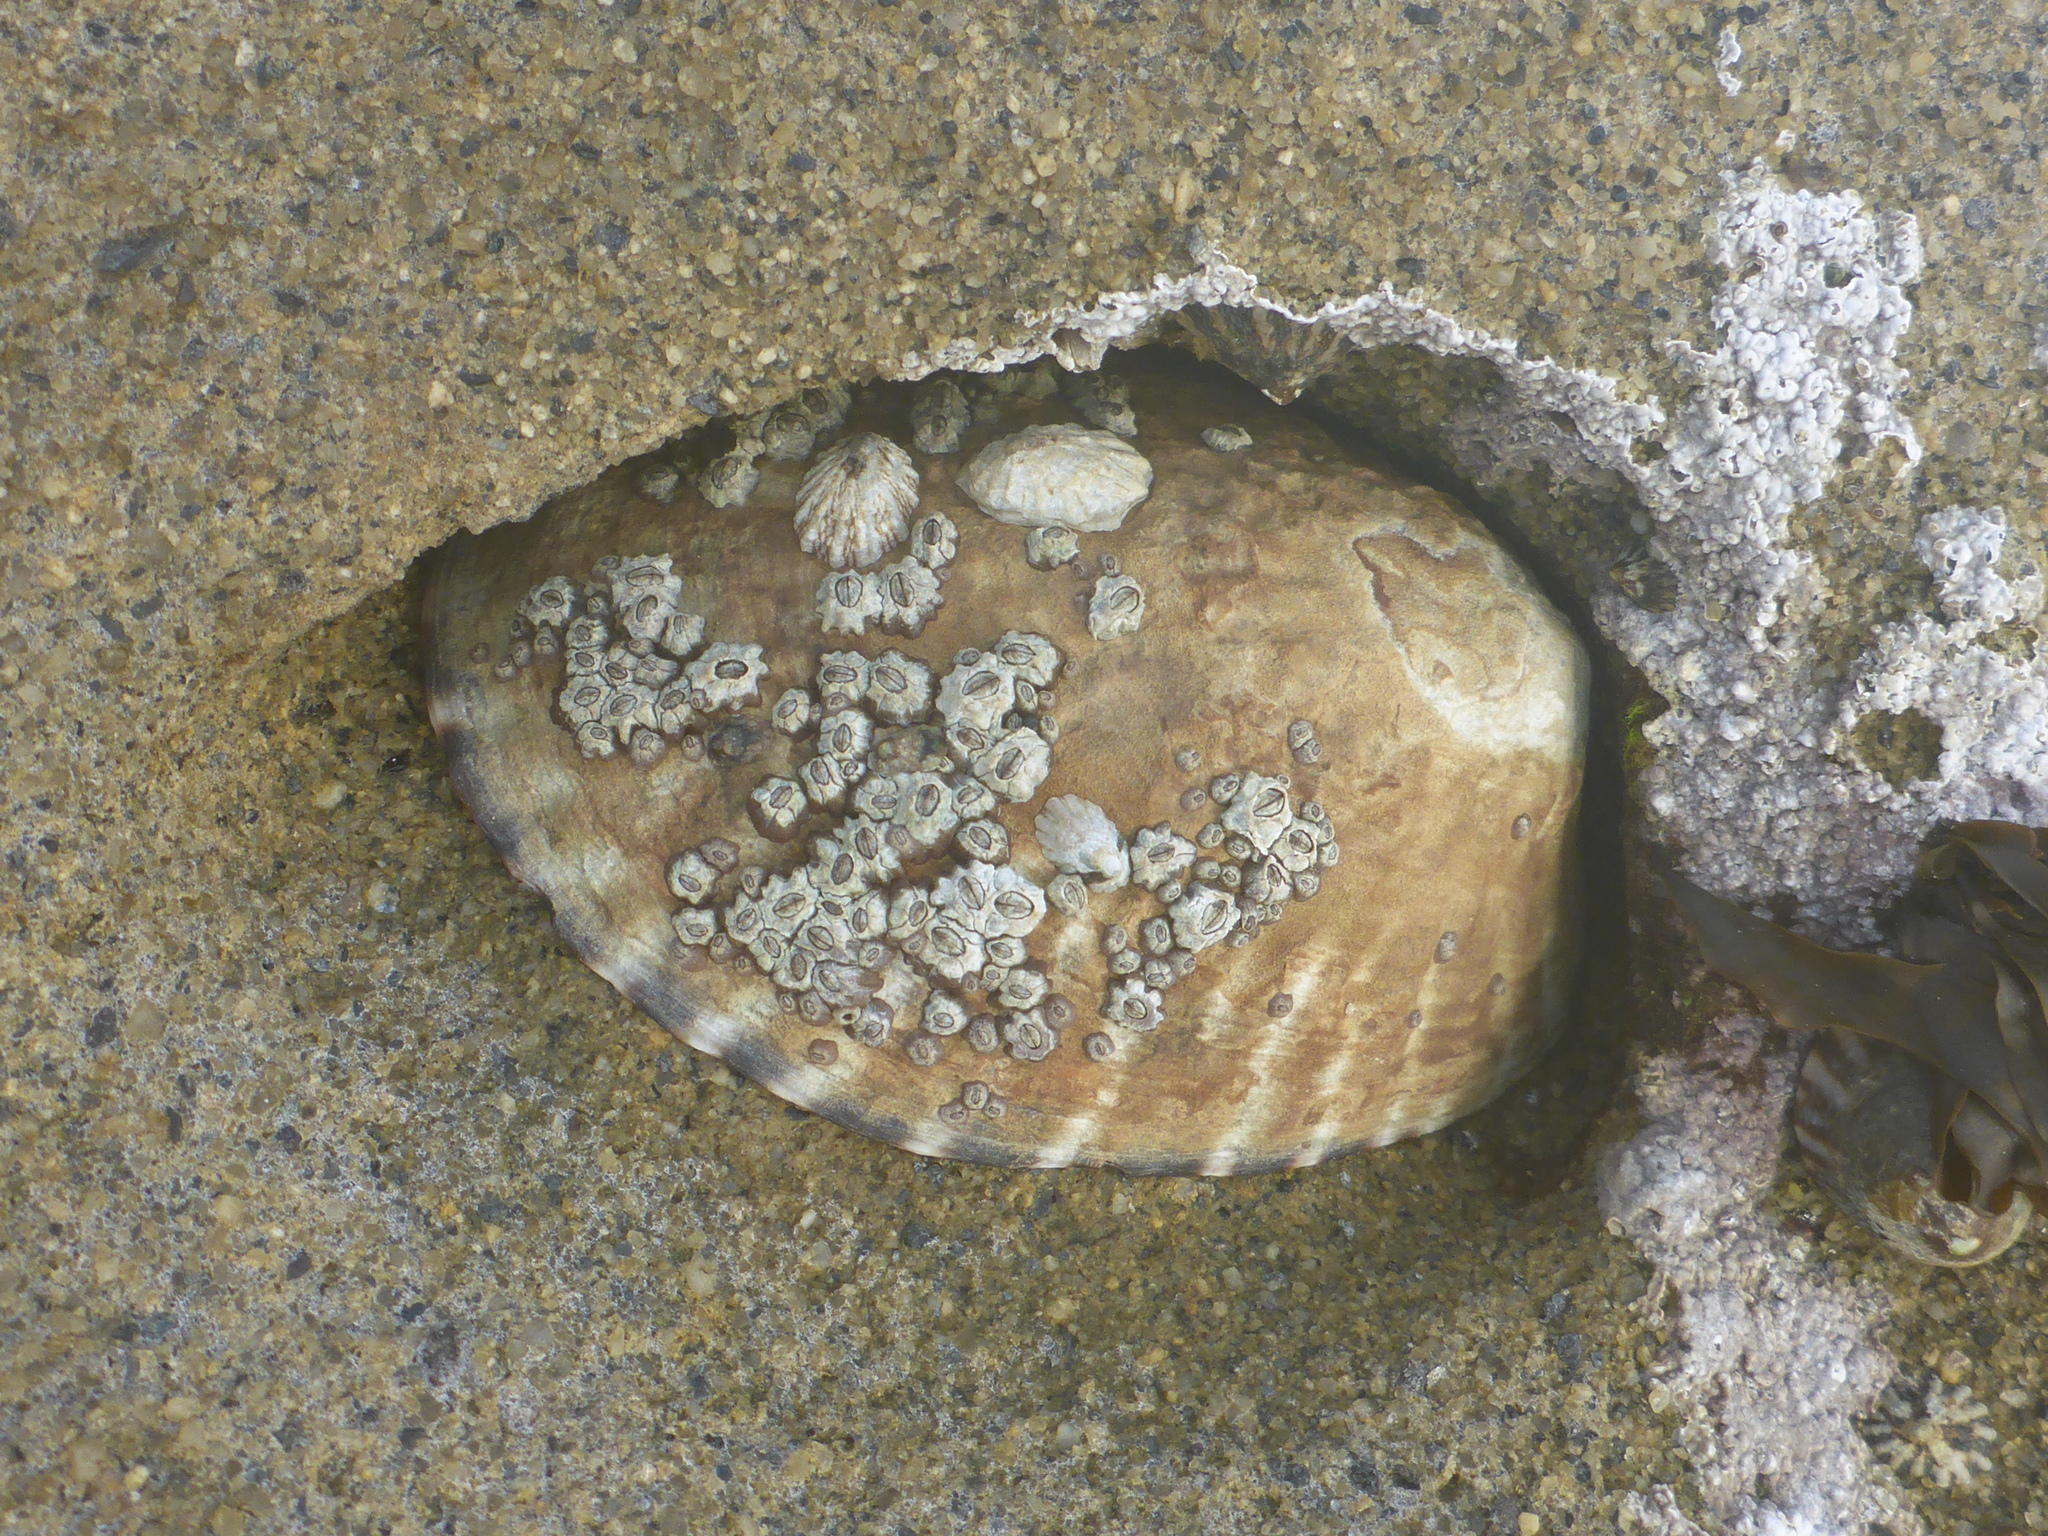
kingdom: Animalia
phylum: Mollusca
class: Gastropoda
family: Lottiidae
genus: Lottia
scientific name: Lottia gigantea
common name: Owl limpet
